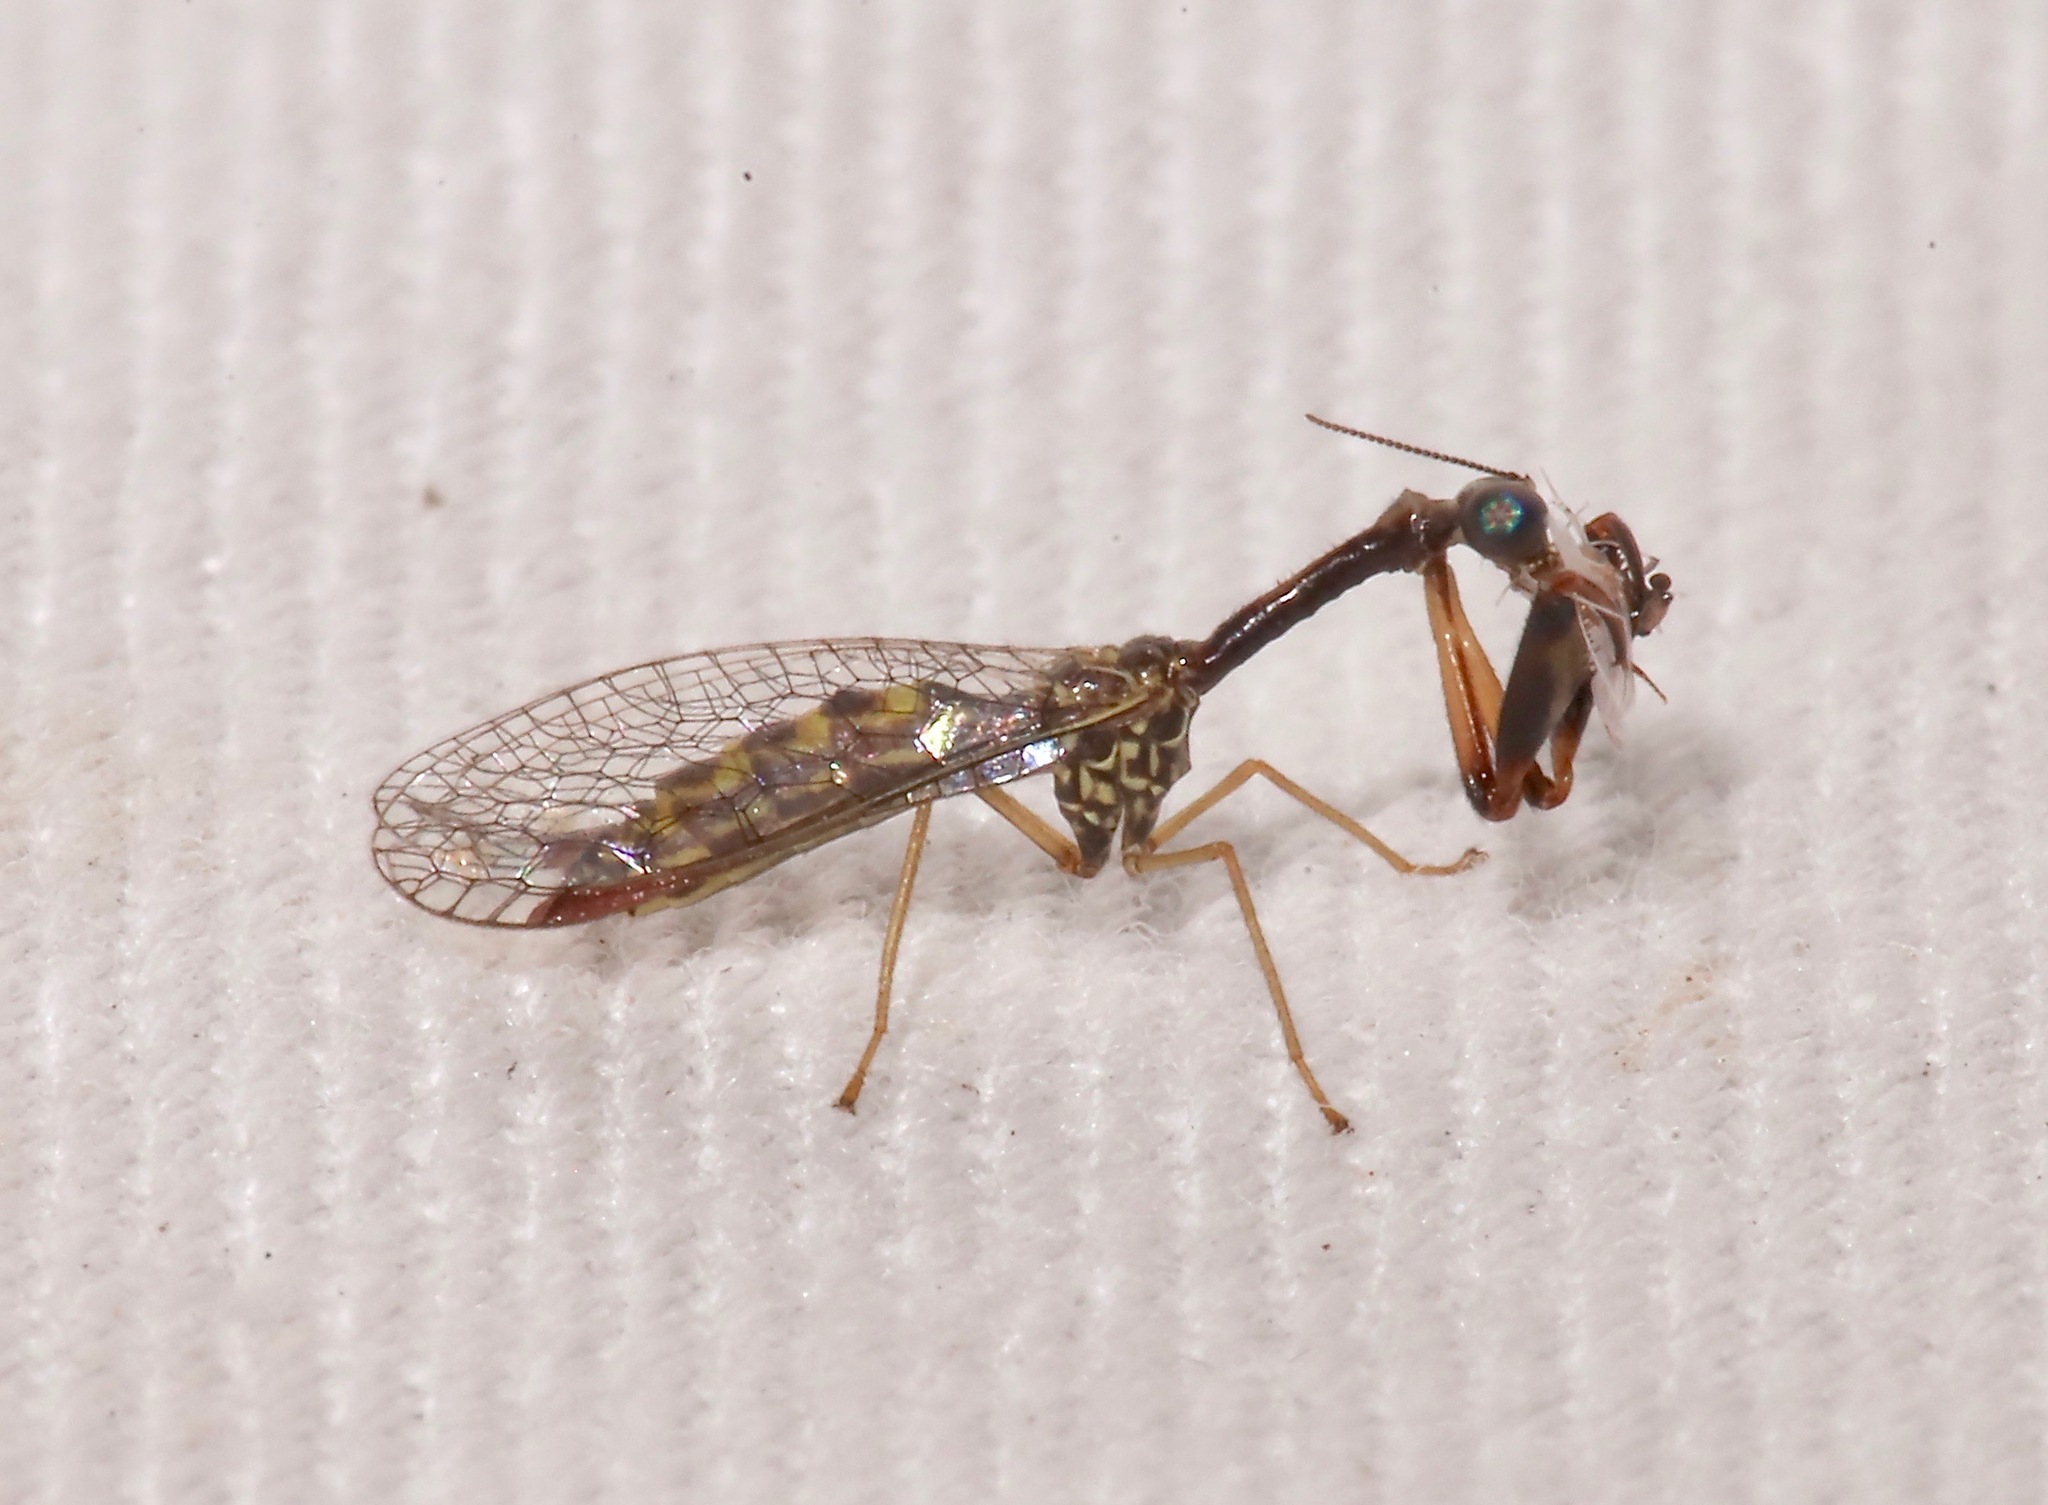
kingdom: Animalia
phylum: Arthropoda
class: Insecta
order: Neuroptera
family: Mantispidae
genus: Leptomantispa
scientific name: Leptomantispa pulchella
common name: Stevens's mantidfly
